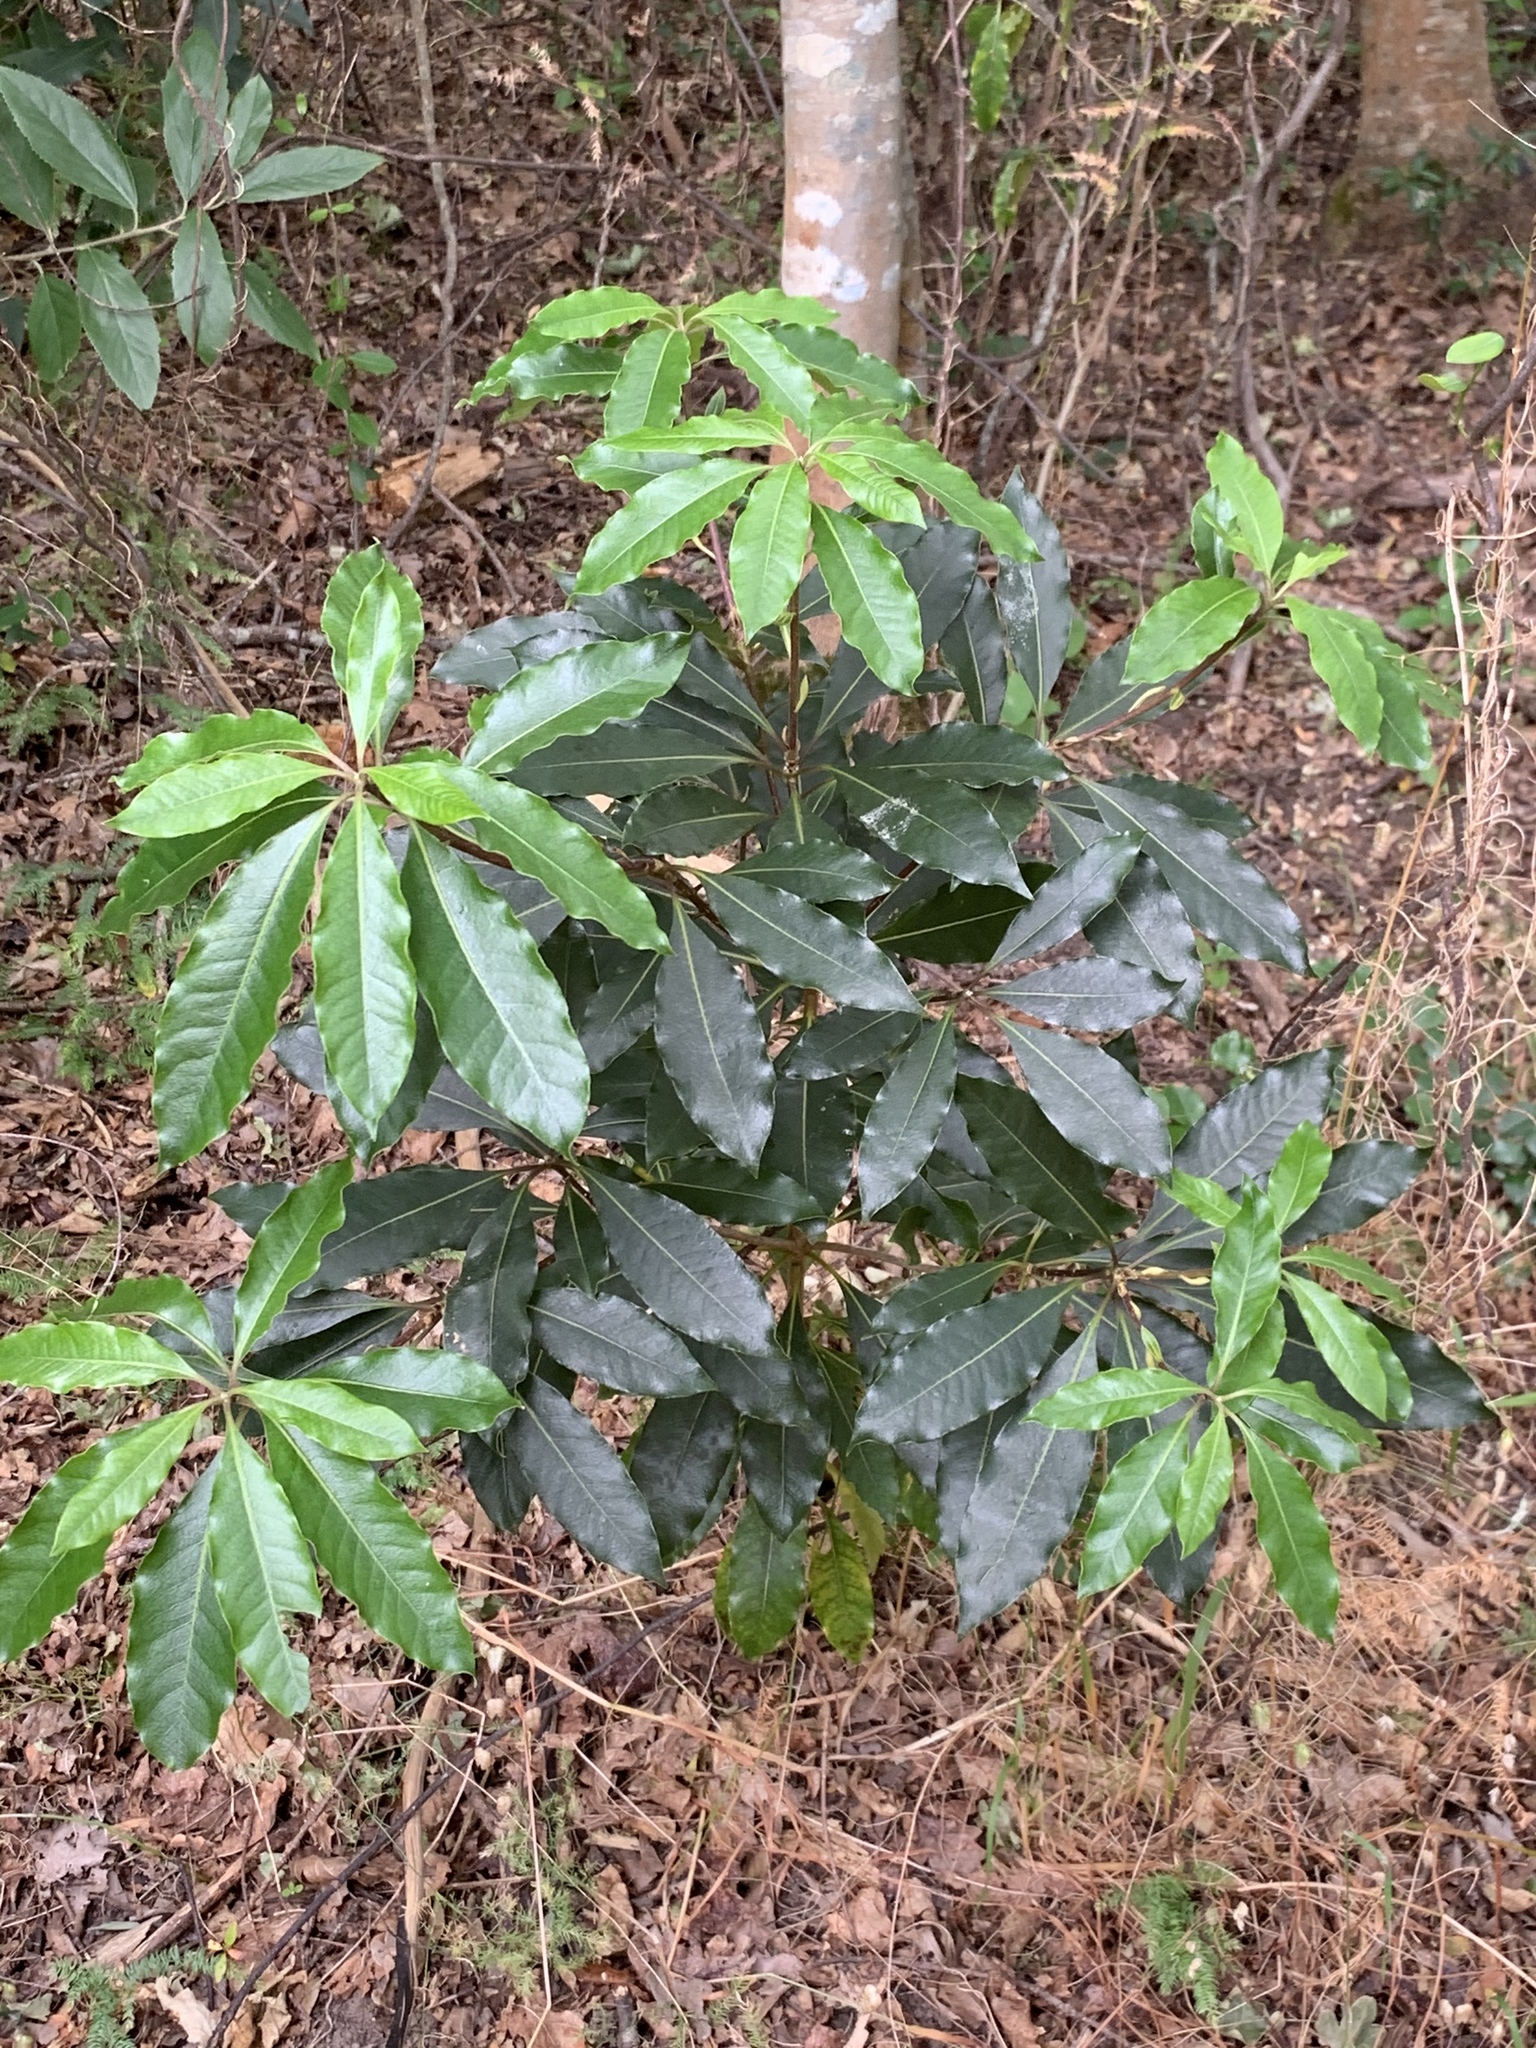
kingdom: Plantae
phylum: Tracheophyta
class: Magnoliopsida
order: Apiales
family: Pittosporaceae
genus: Pittosporum
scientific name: Pittosporum undulatum
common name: Australian cheesewood
